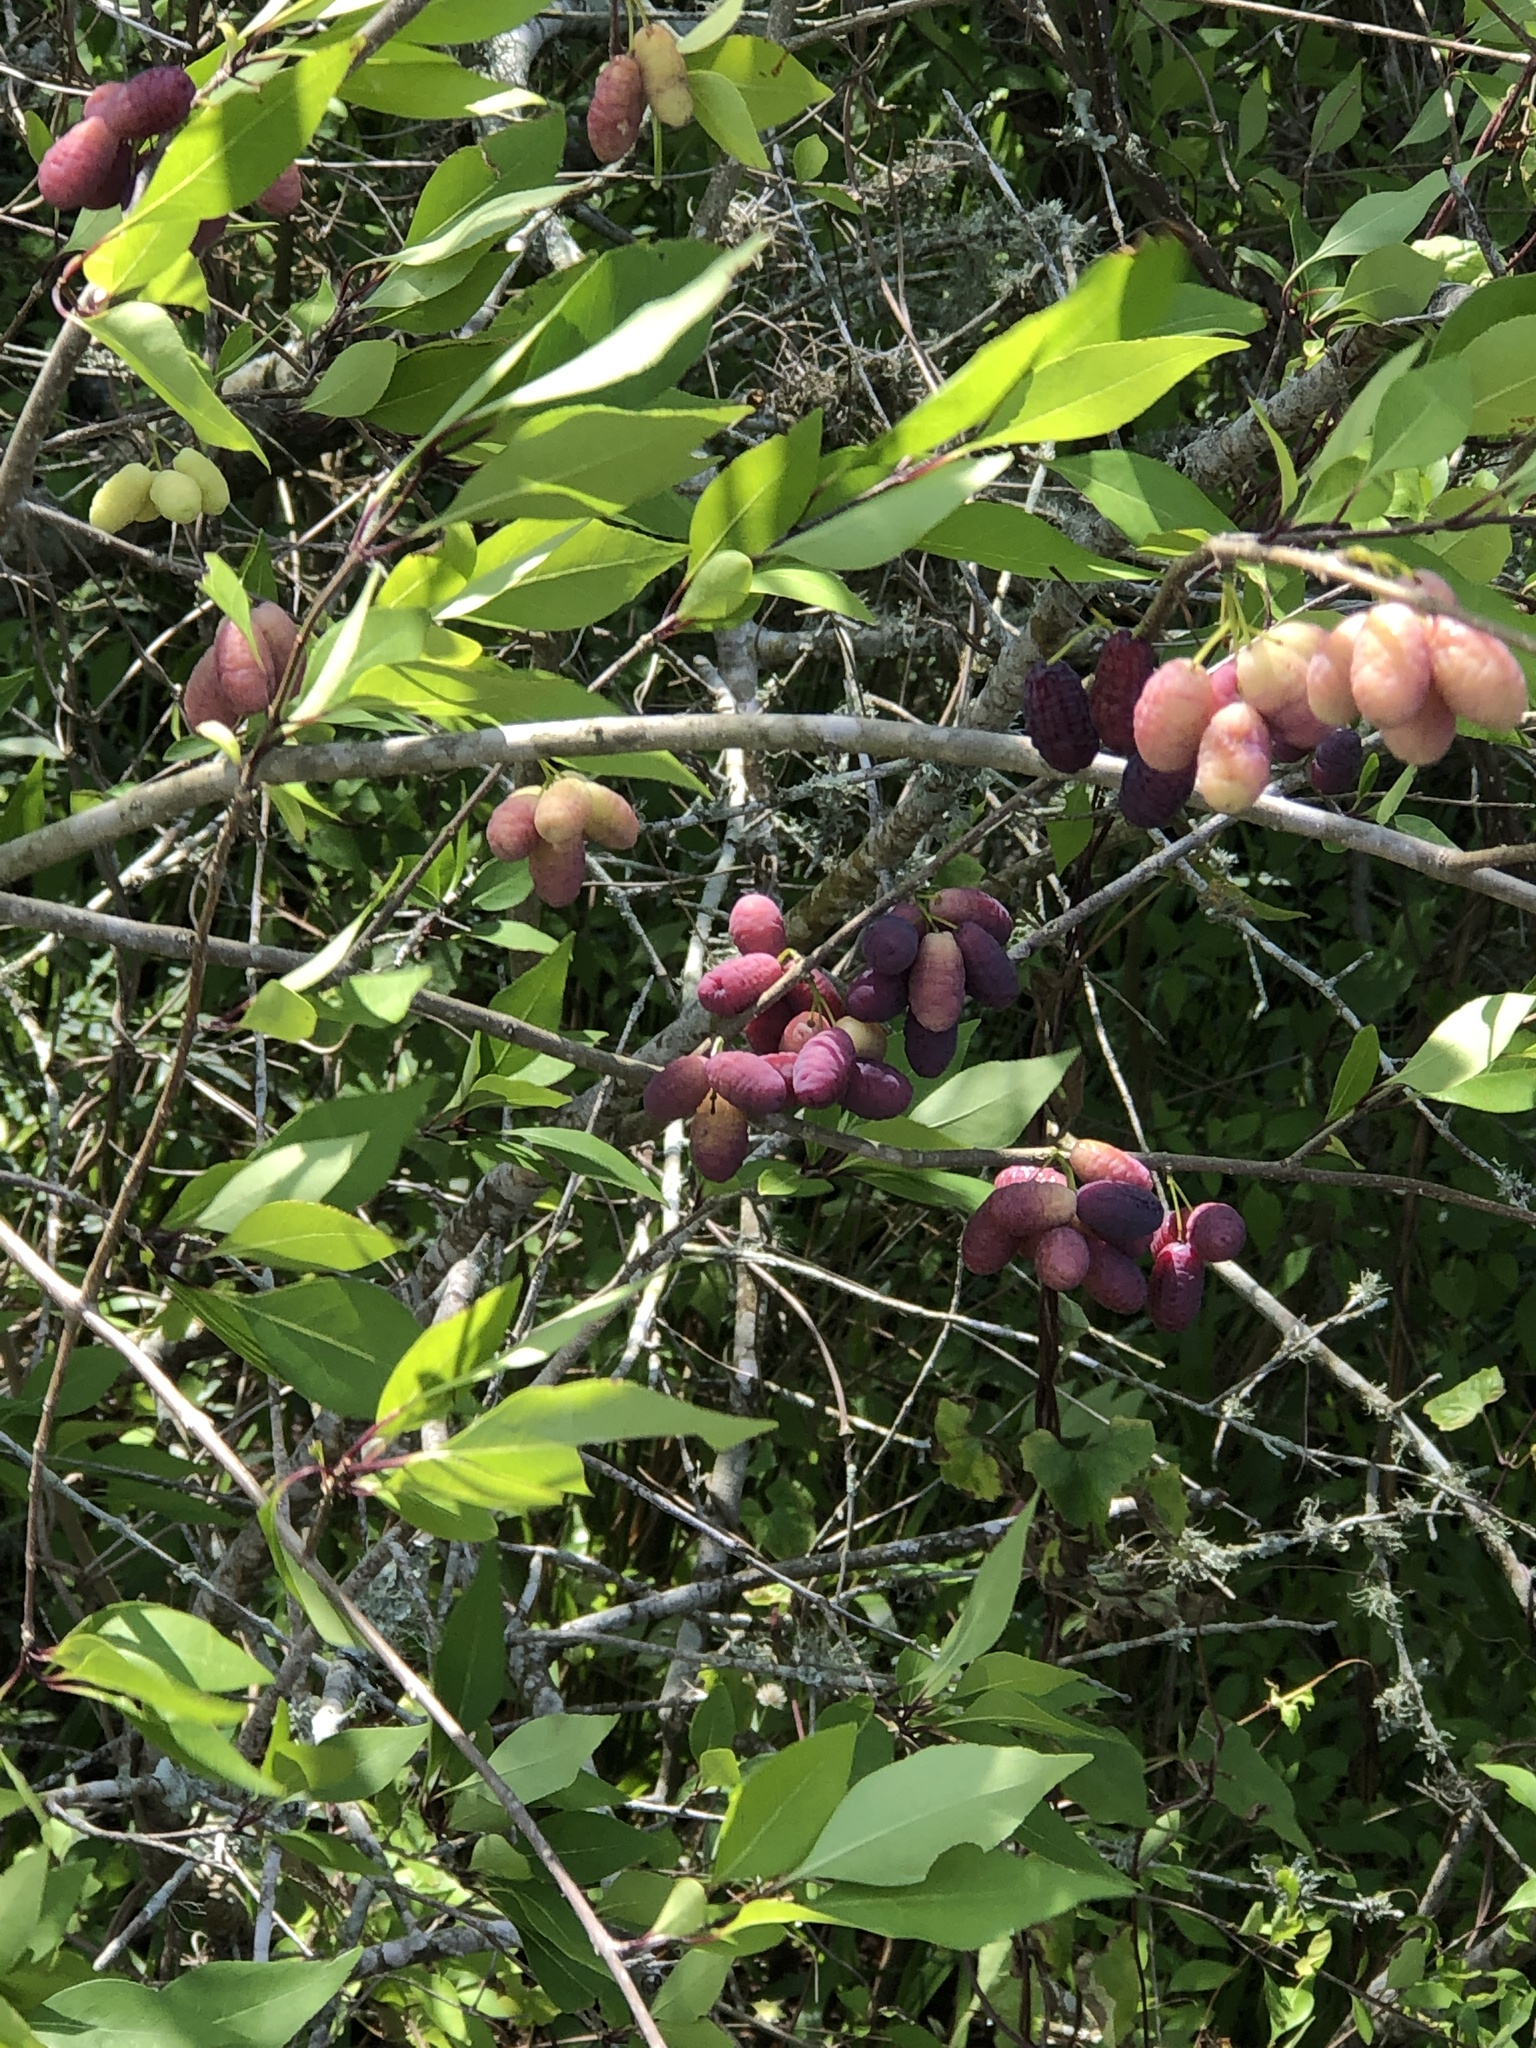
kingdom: Plantae
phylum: Tracheophyta
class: Magnoliopsida
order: Lamiales
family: Oleaceae
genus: Forestiera
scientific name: Forestiera acuminata
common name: Swamp-privet
